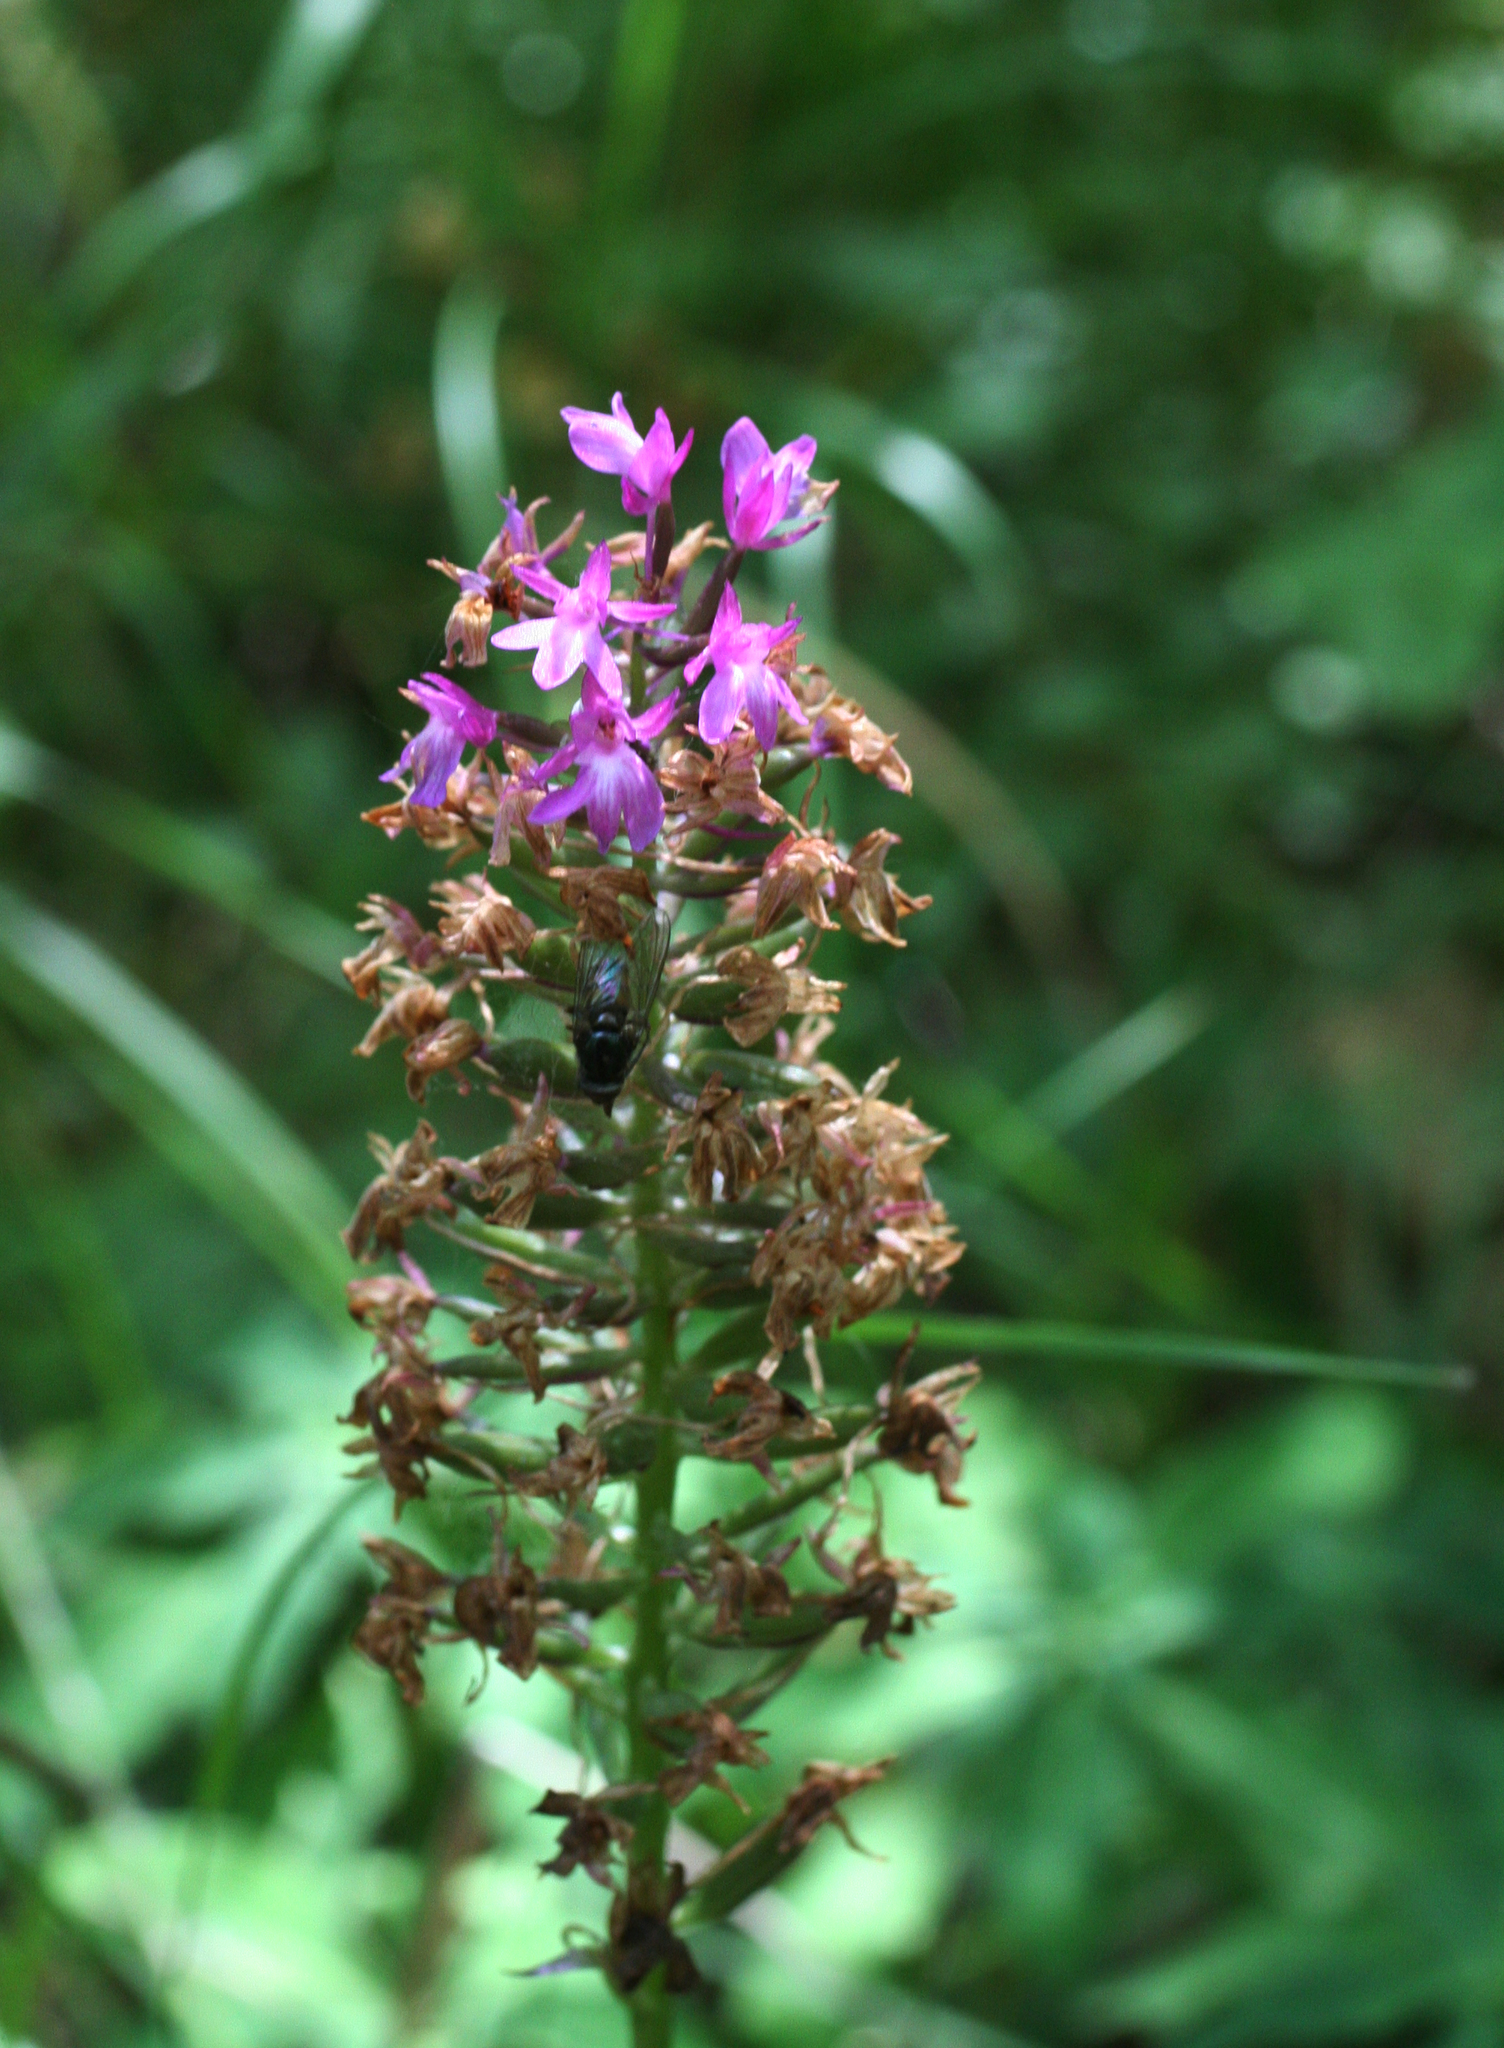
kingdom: Plantae
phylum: Tracheophyta
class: Liliopsida
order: Asparagales
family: Orchidaceae
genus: Anacamptis
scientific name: Anacamptis pyramidalis
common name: Pyramidal orchid
